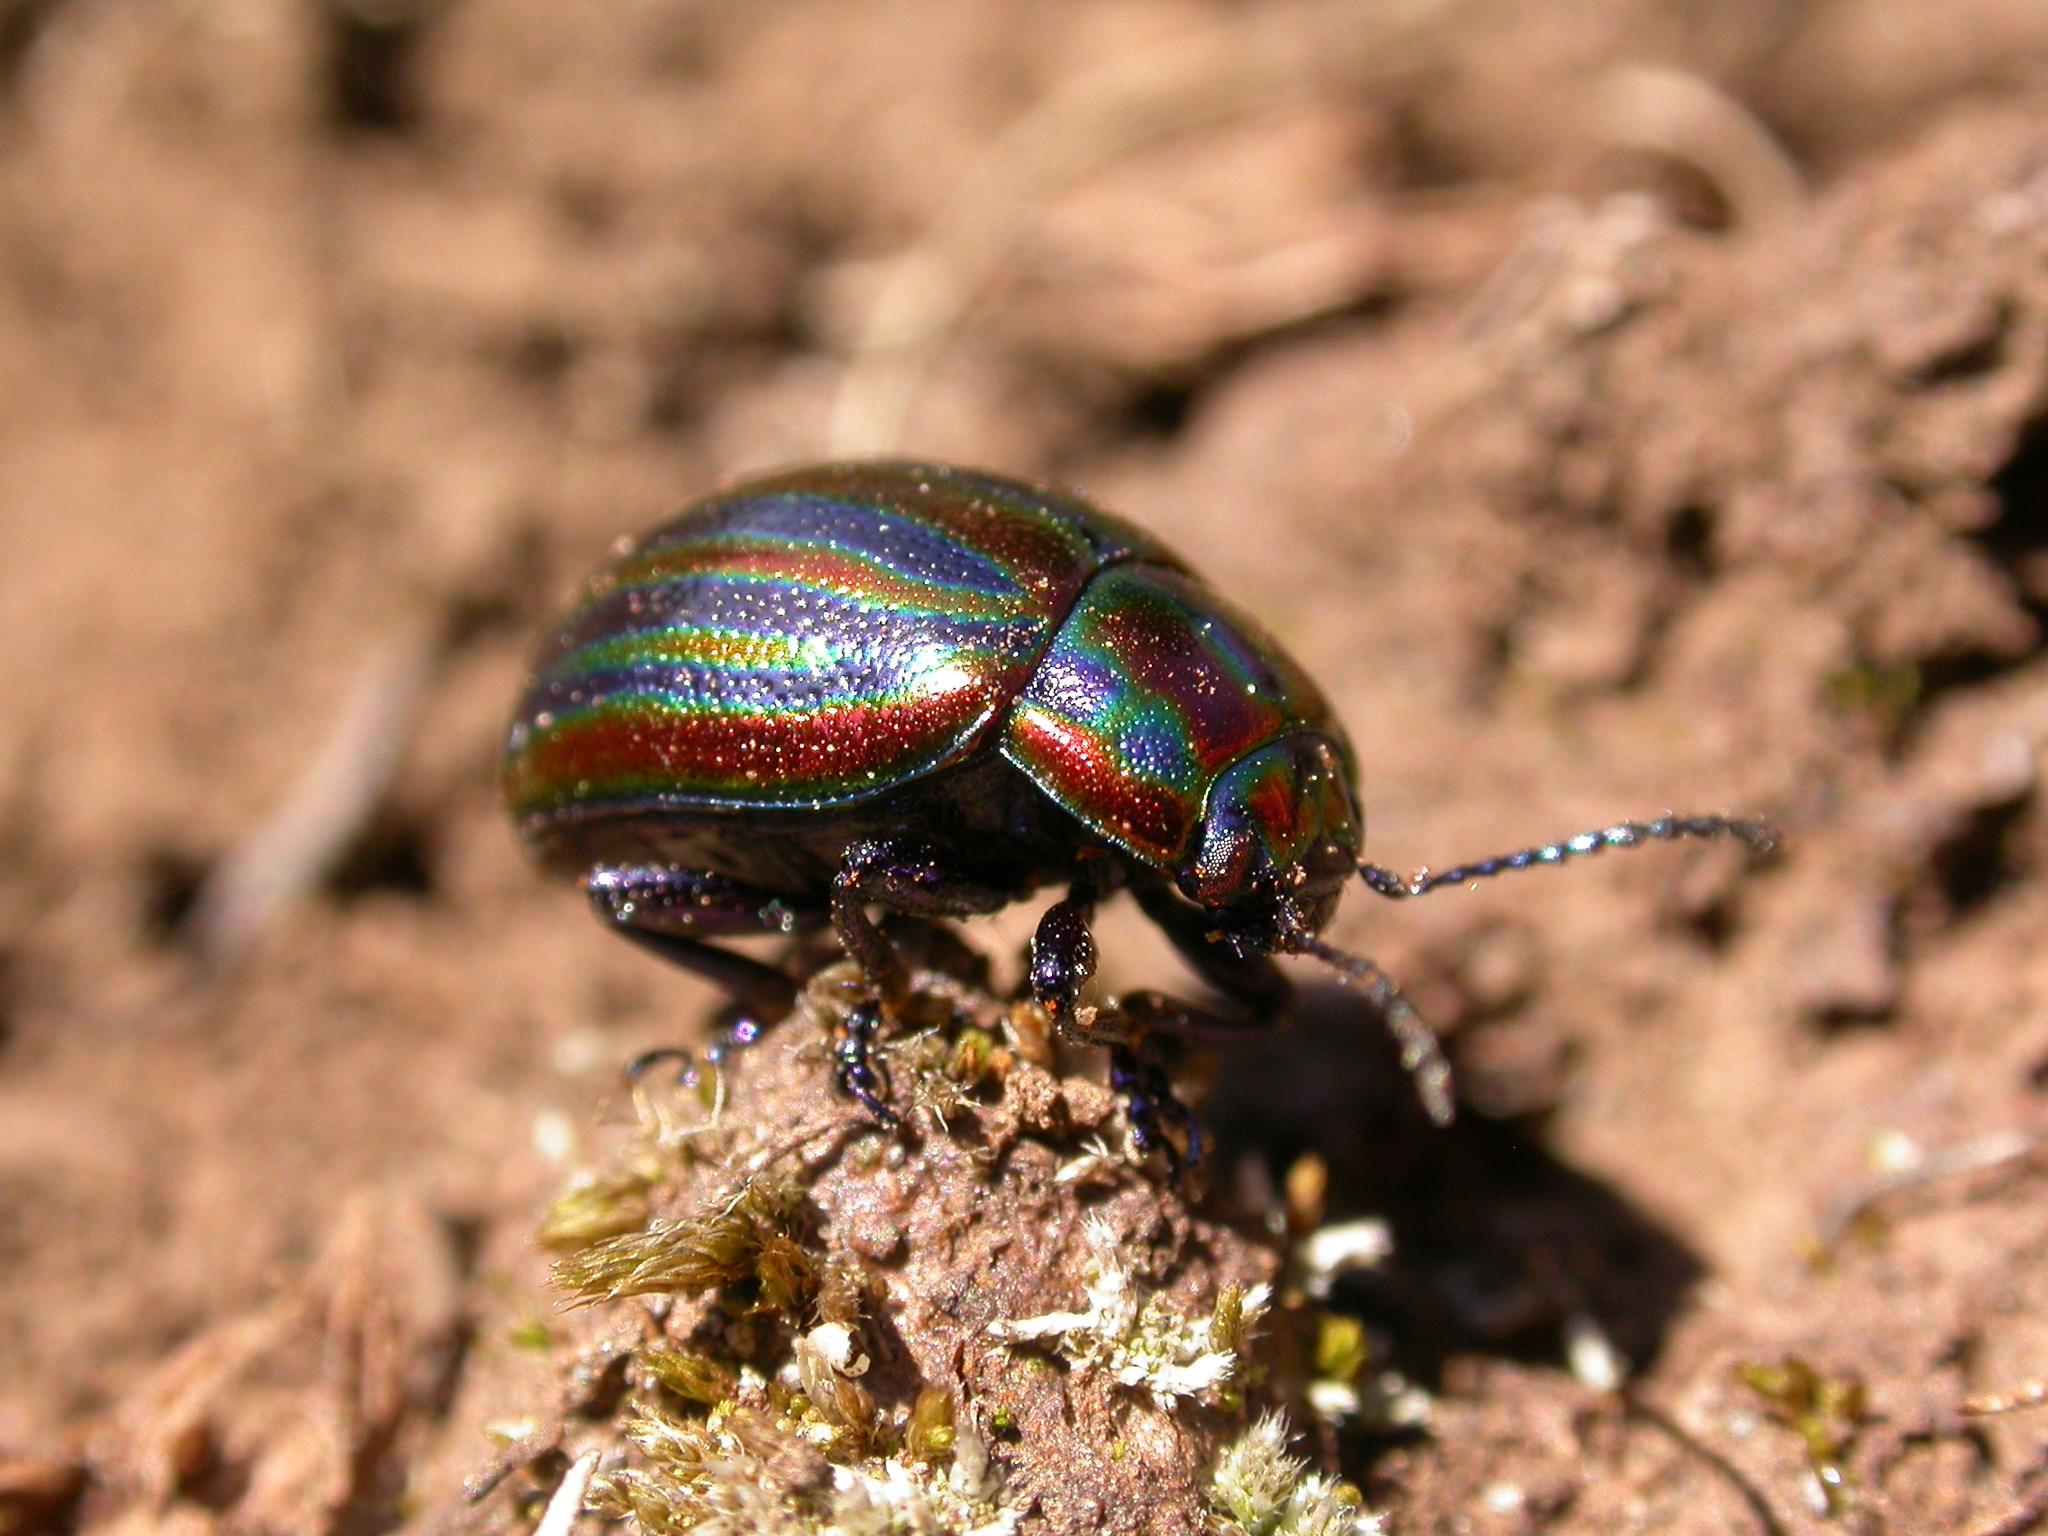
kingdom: Animalia
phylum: Arthropoda
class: Insecta
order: Coleoptera
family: Chrysomelidae
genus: Chrysolina
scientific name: Chrysolina cerealis
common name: Rainbow leaf beetle
